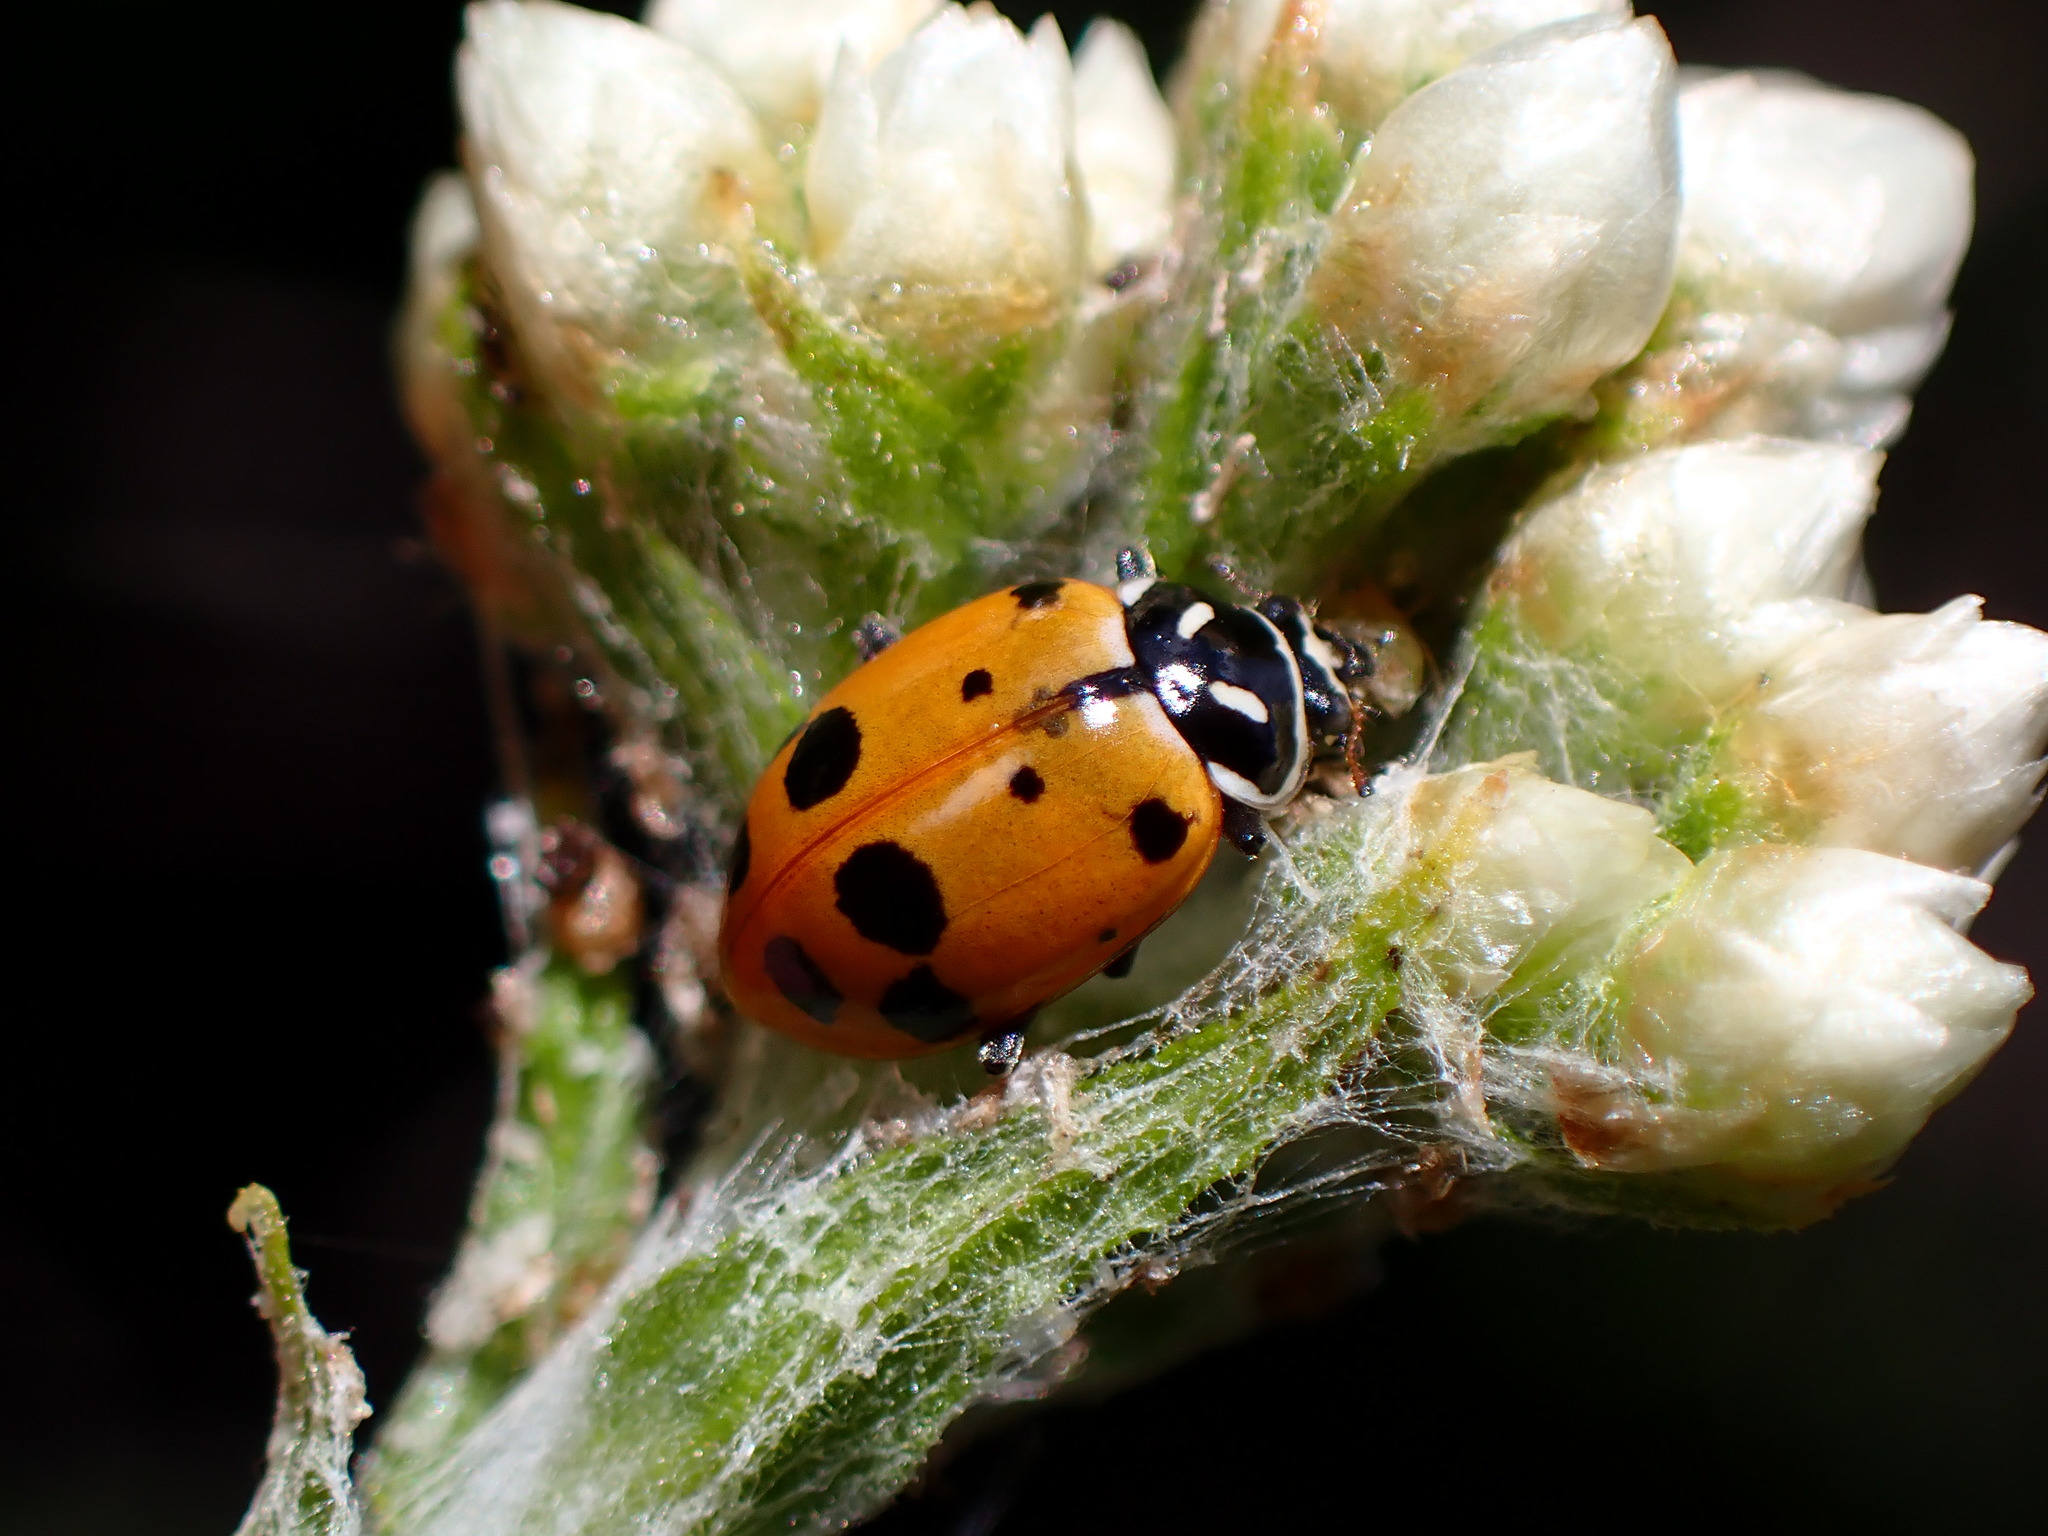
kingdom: Animalia
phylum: Arthropoda
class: Insecta
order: Coleoptera
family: Coccinellidae
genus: Hippodamia
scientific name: Hippodamia convergens
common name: Convergent lady beetle
